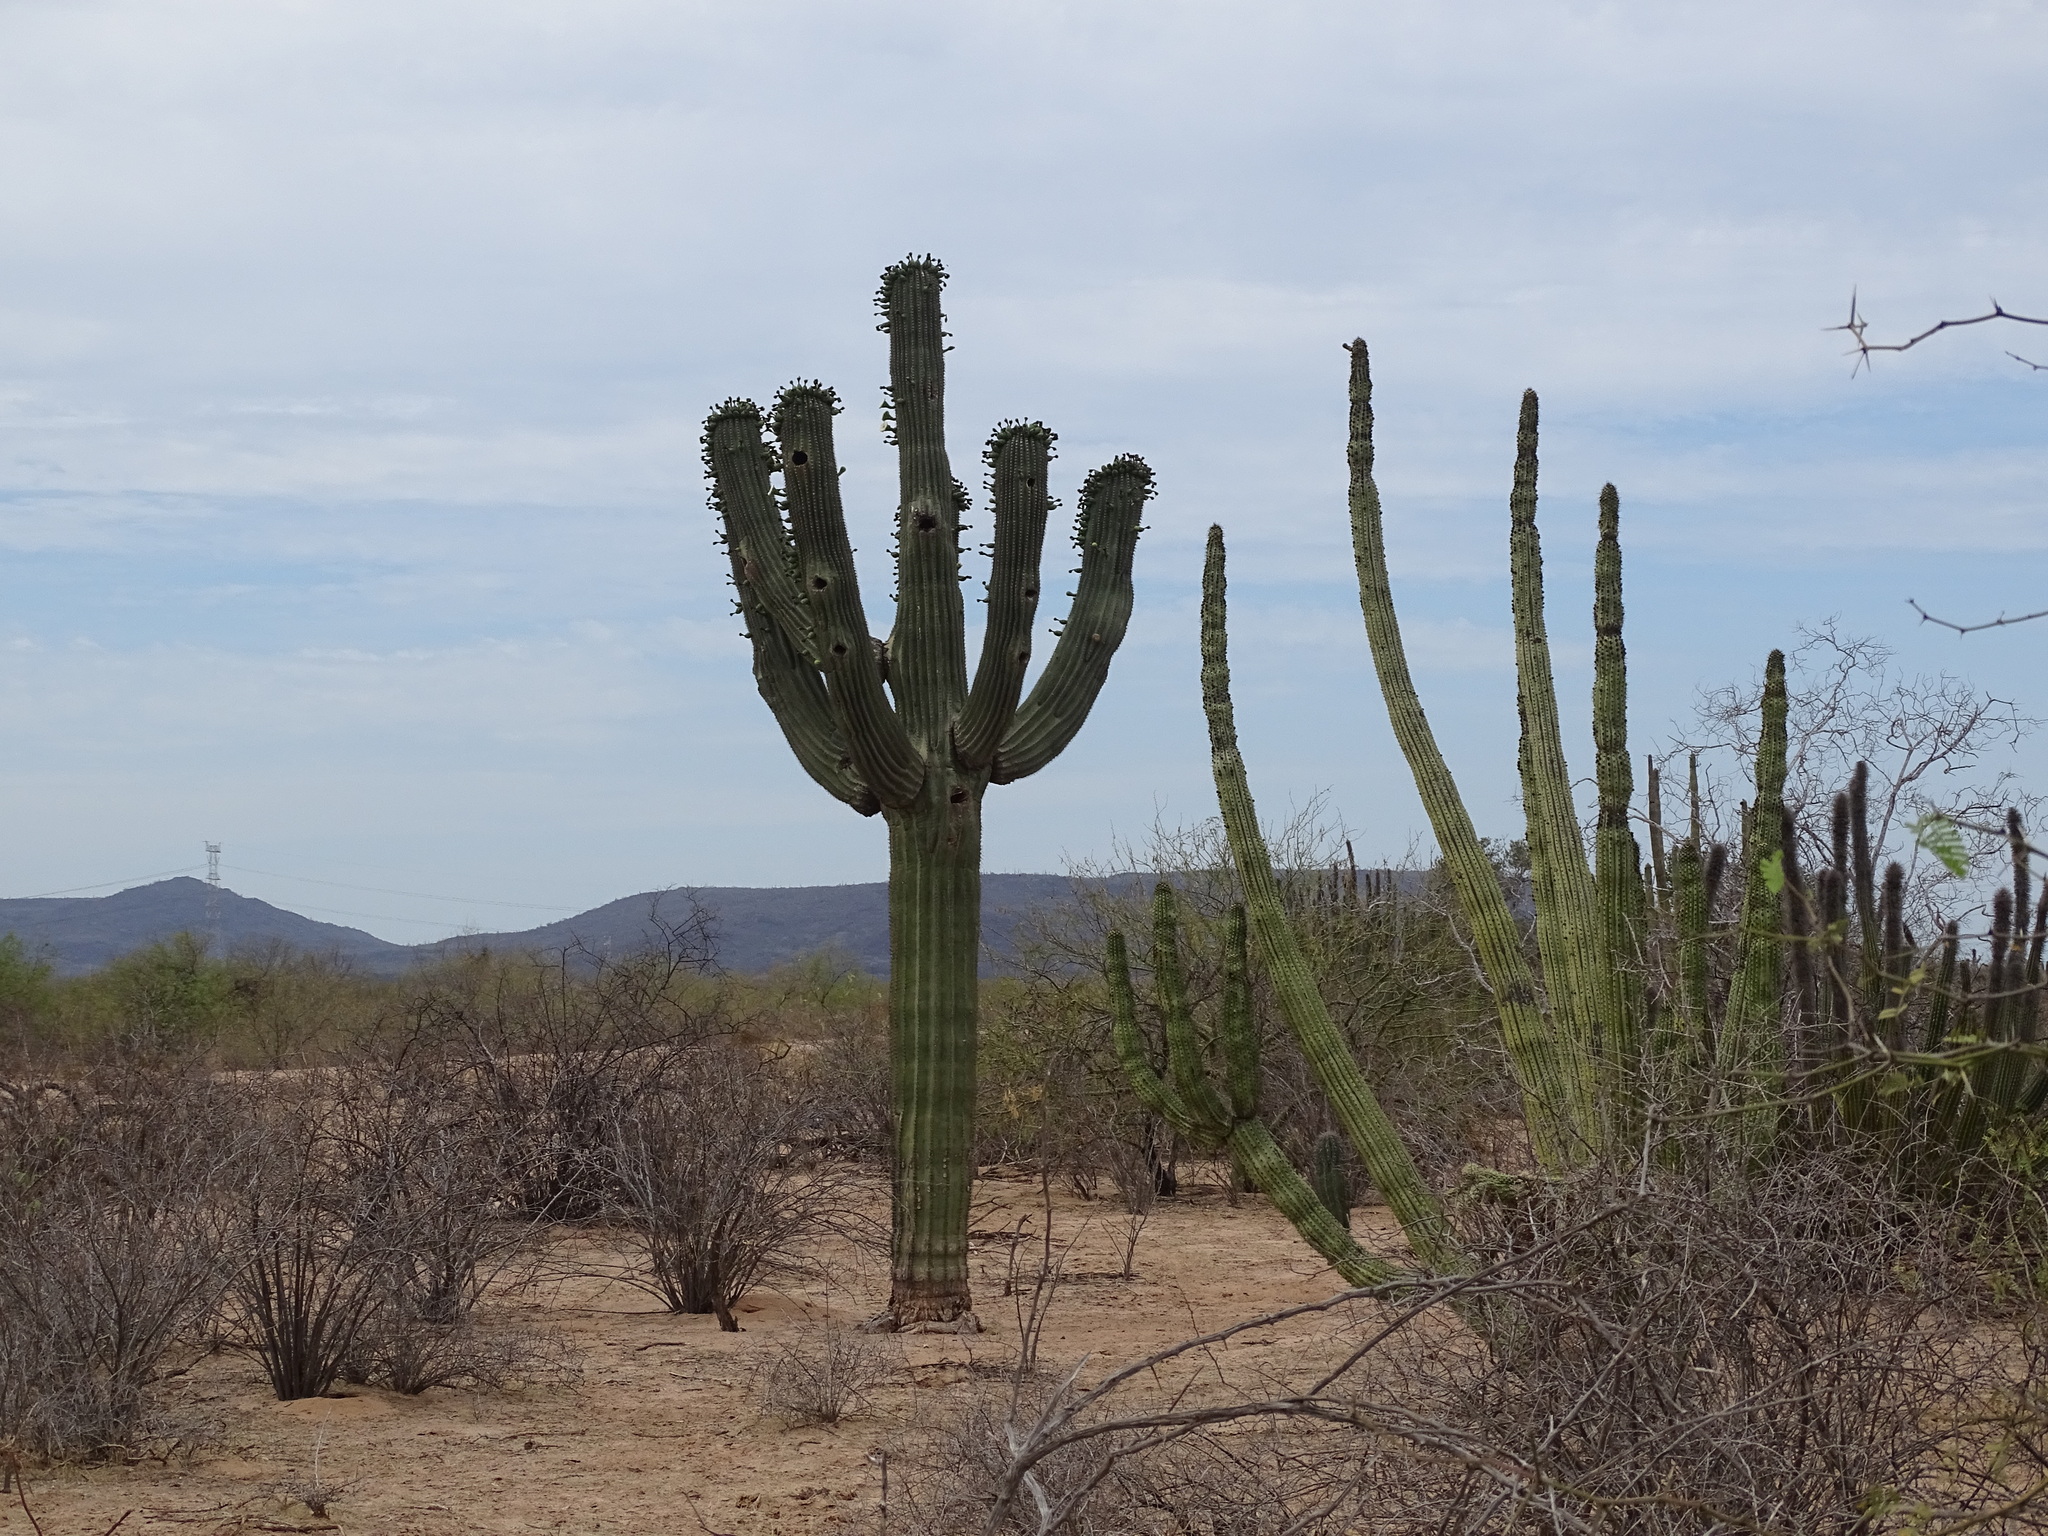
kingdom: Plantae
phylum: Tracheophyta
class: Magnoliopsida
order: Caryophyllales
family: Cactaceae
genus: Carnegiea
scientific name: Carnegiea gigantea
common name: Saguaro
